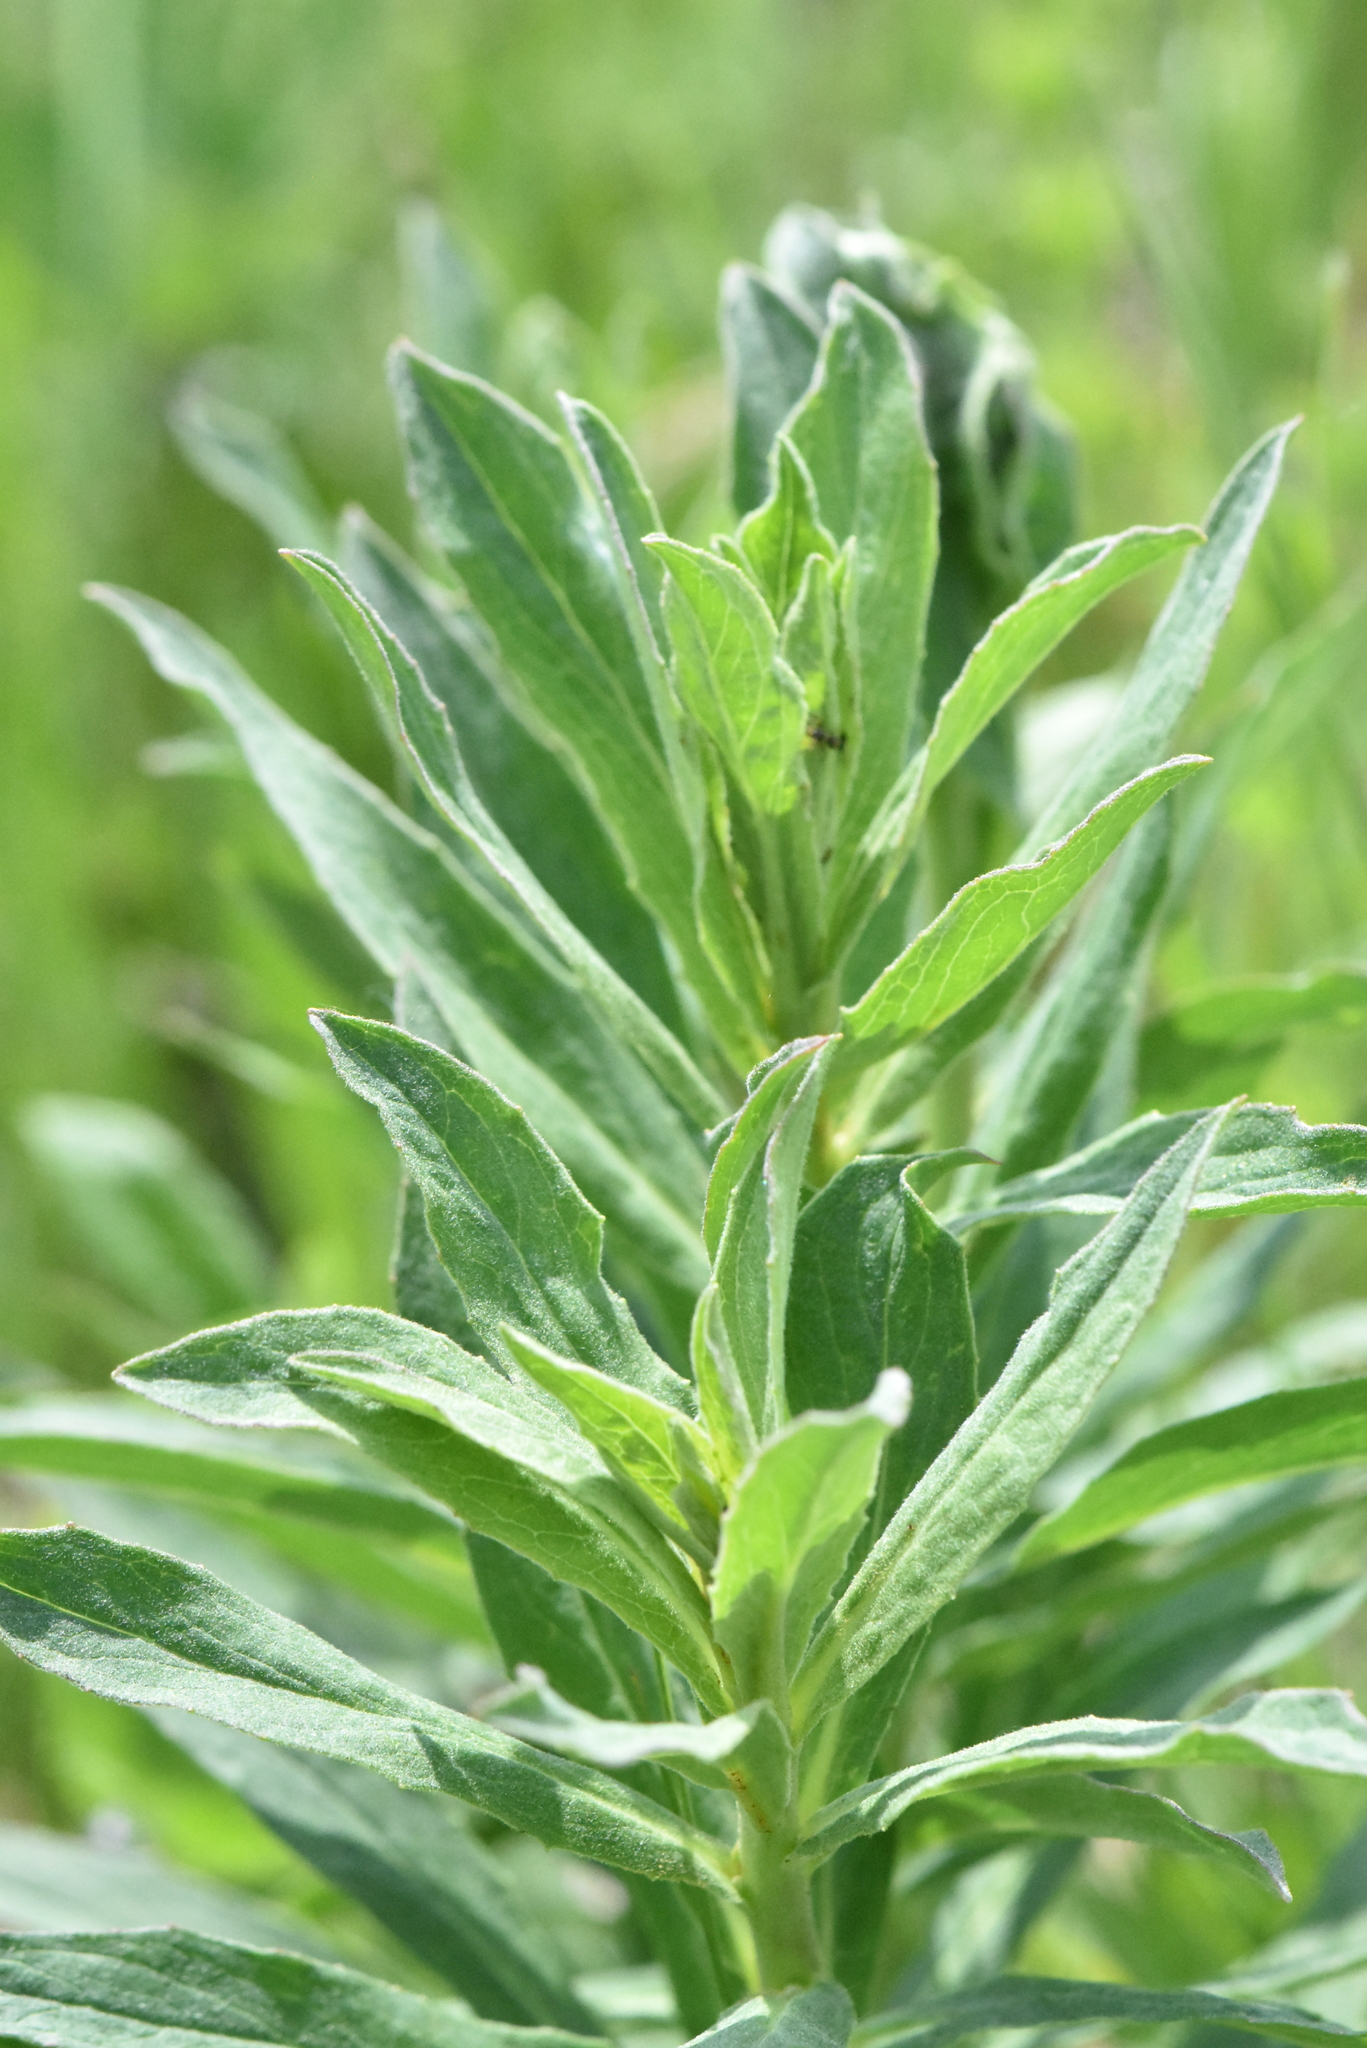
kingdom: Plantae
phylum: Tracheophyta
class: Magnoliopsida
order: Asterales
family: Asteraceae
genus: Hieracium
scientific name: Hieracium umbellatum
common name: Northern hawkweed
